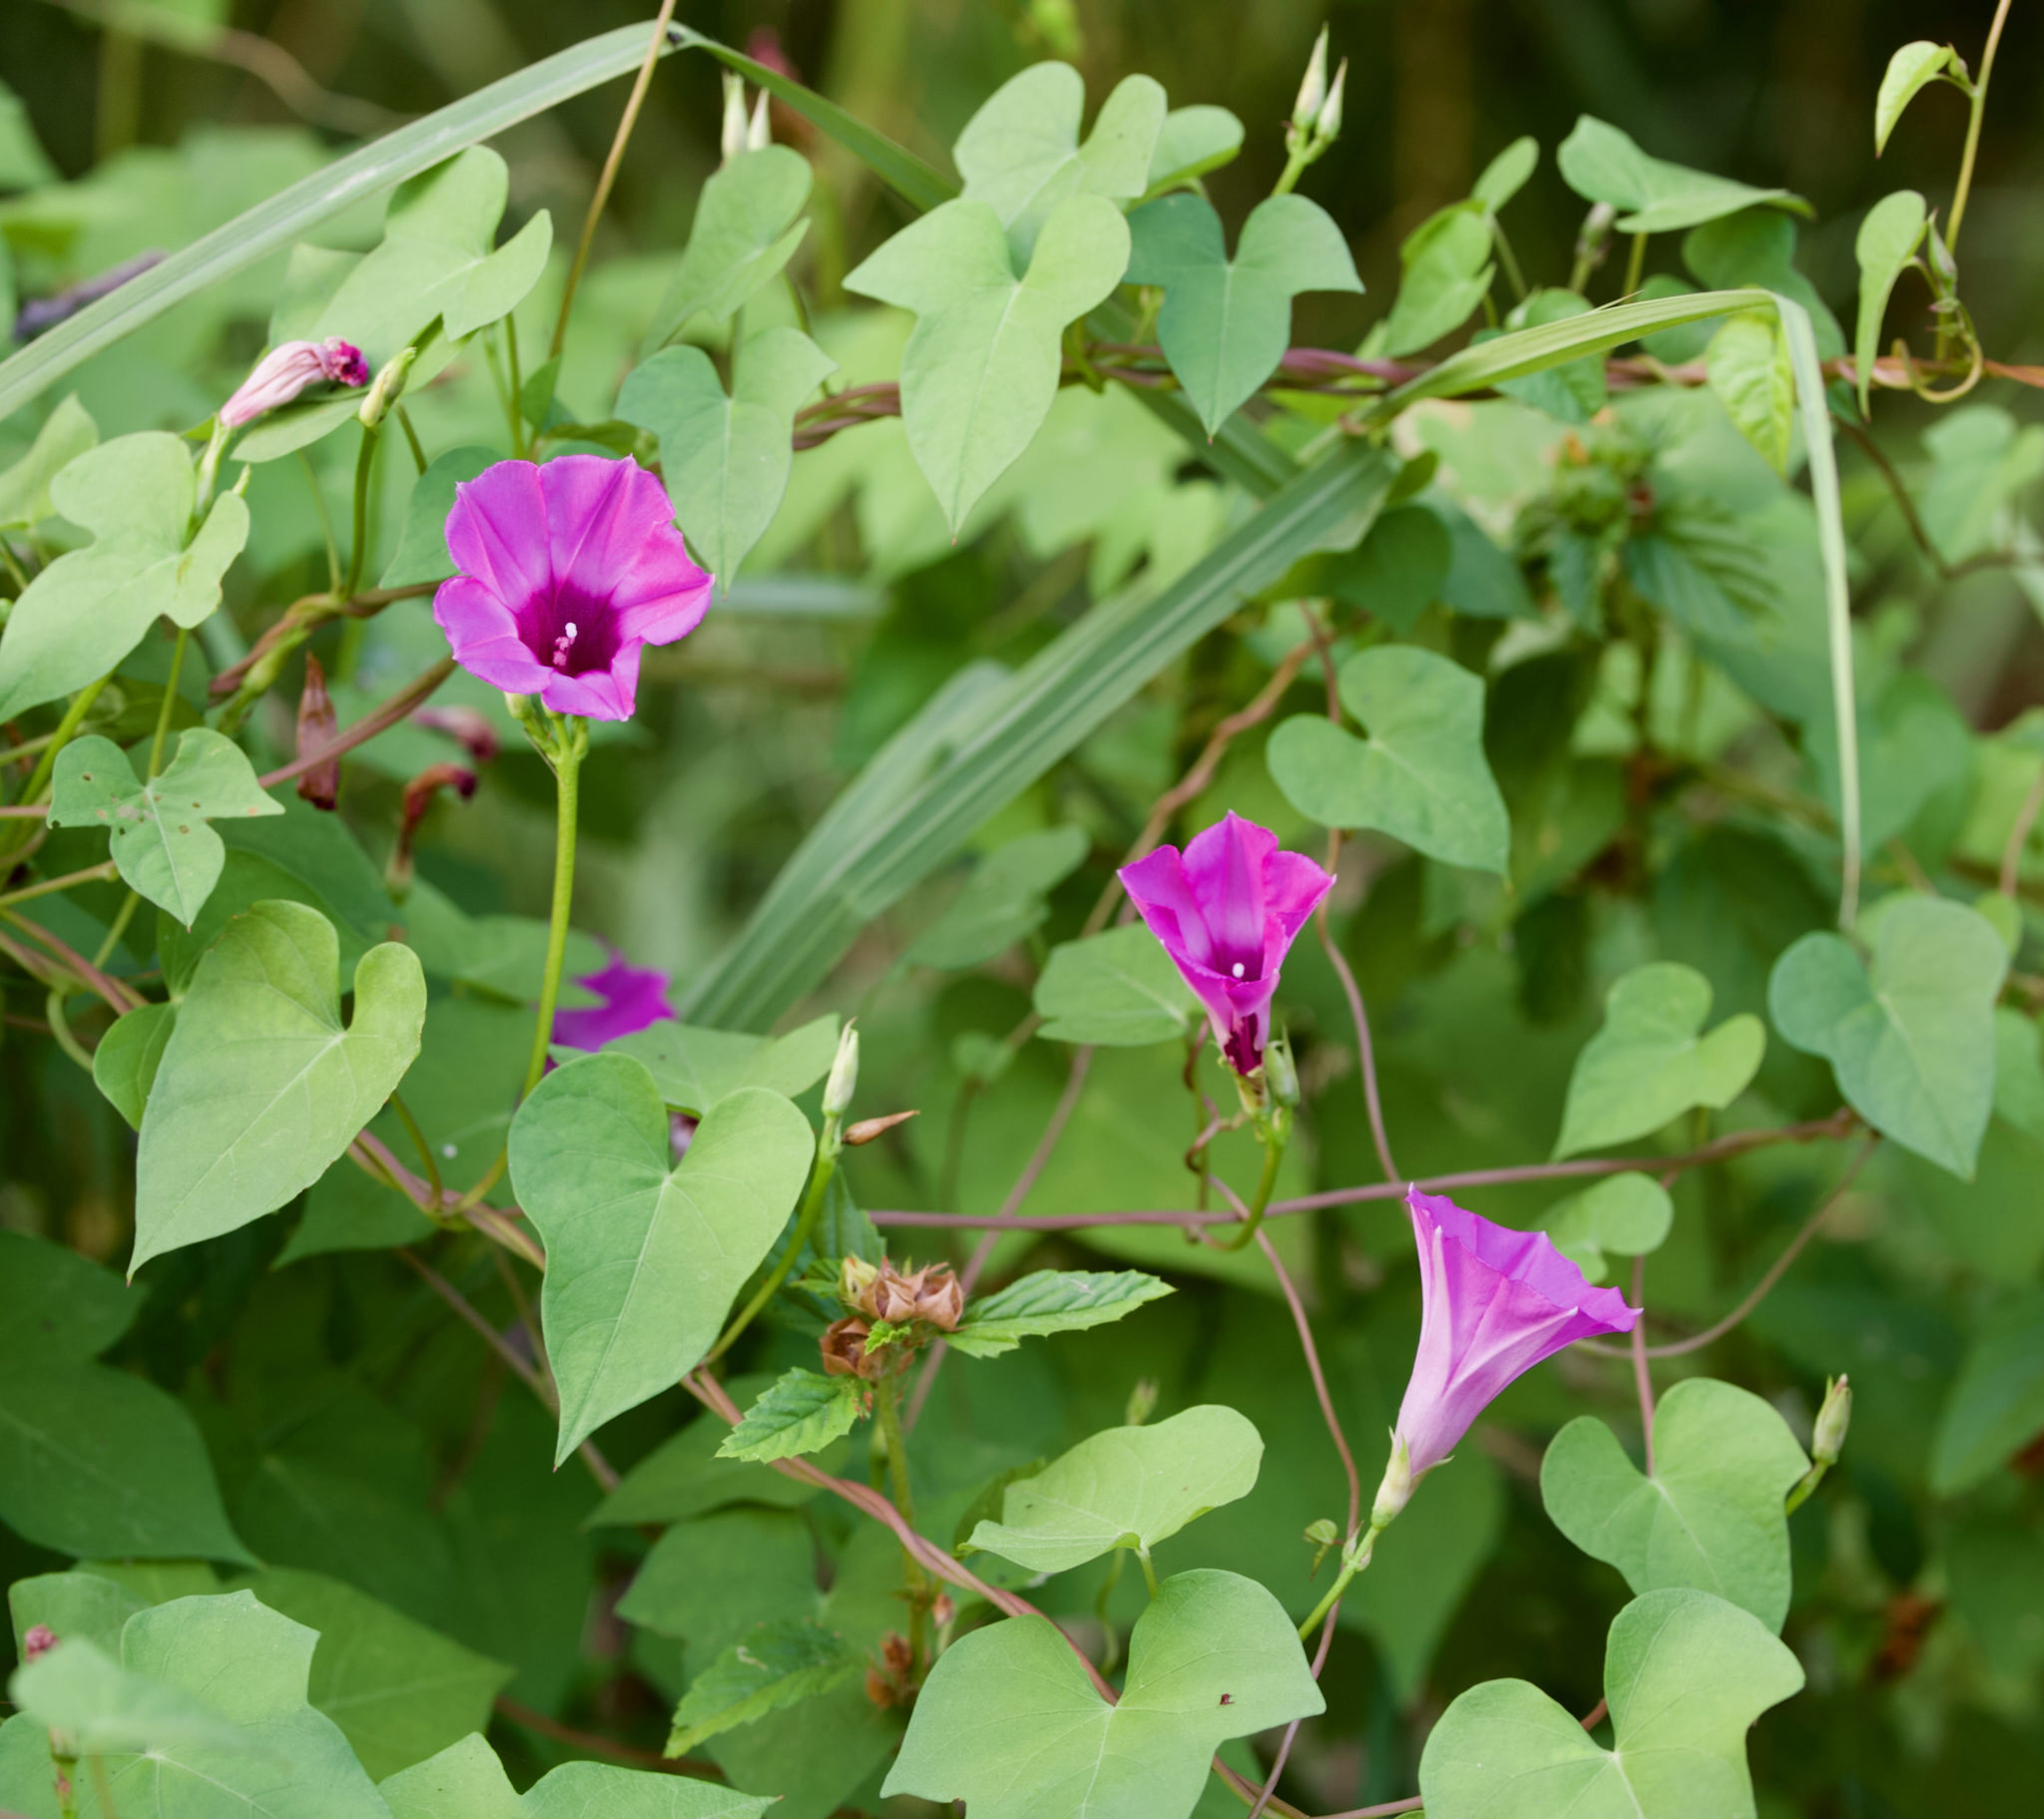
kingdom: Plantae
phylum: Tracheophyta
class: Magnoliopsida
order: Solanales
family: Convolvulaceae
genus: Ipomoea
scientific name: Ipomoea cordatotriloba
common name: Cotton morning glory
